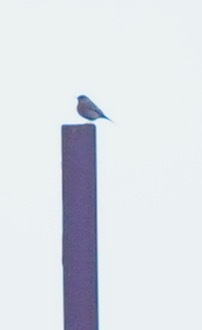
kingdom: Animalia
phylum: Chordata
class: Aves
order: Passeriformes
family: Turdidae
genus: Sialia
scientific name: Sialia mexicana
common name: Western bluebird
